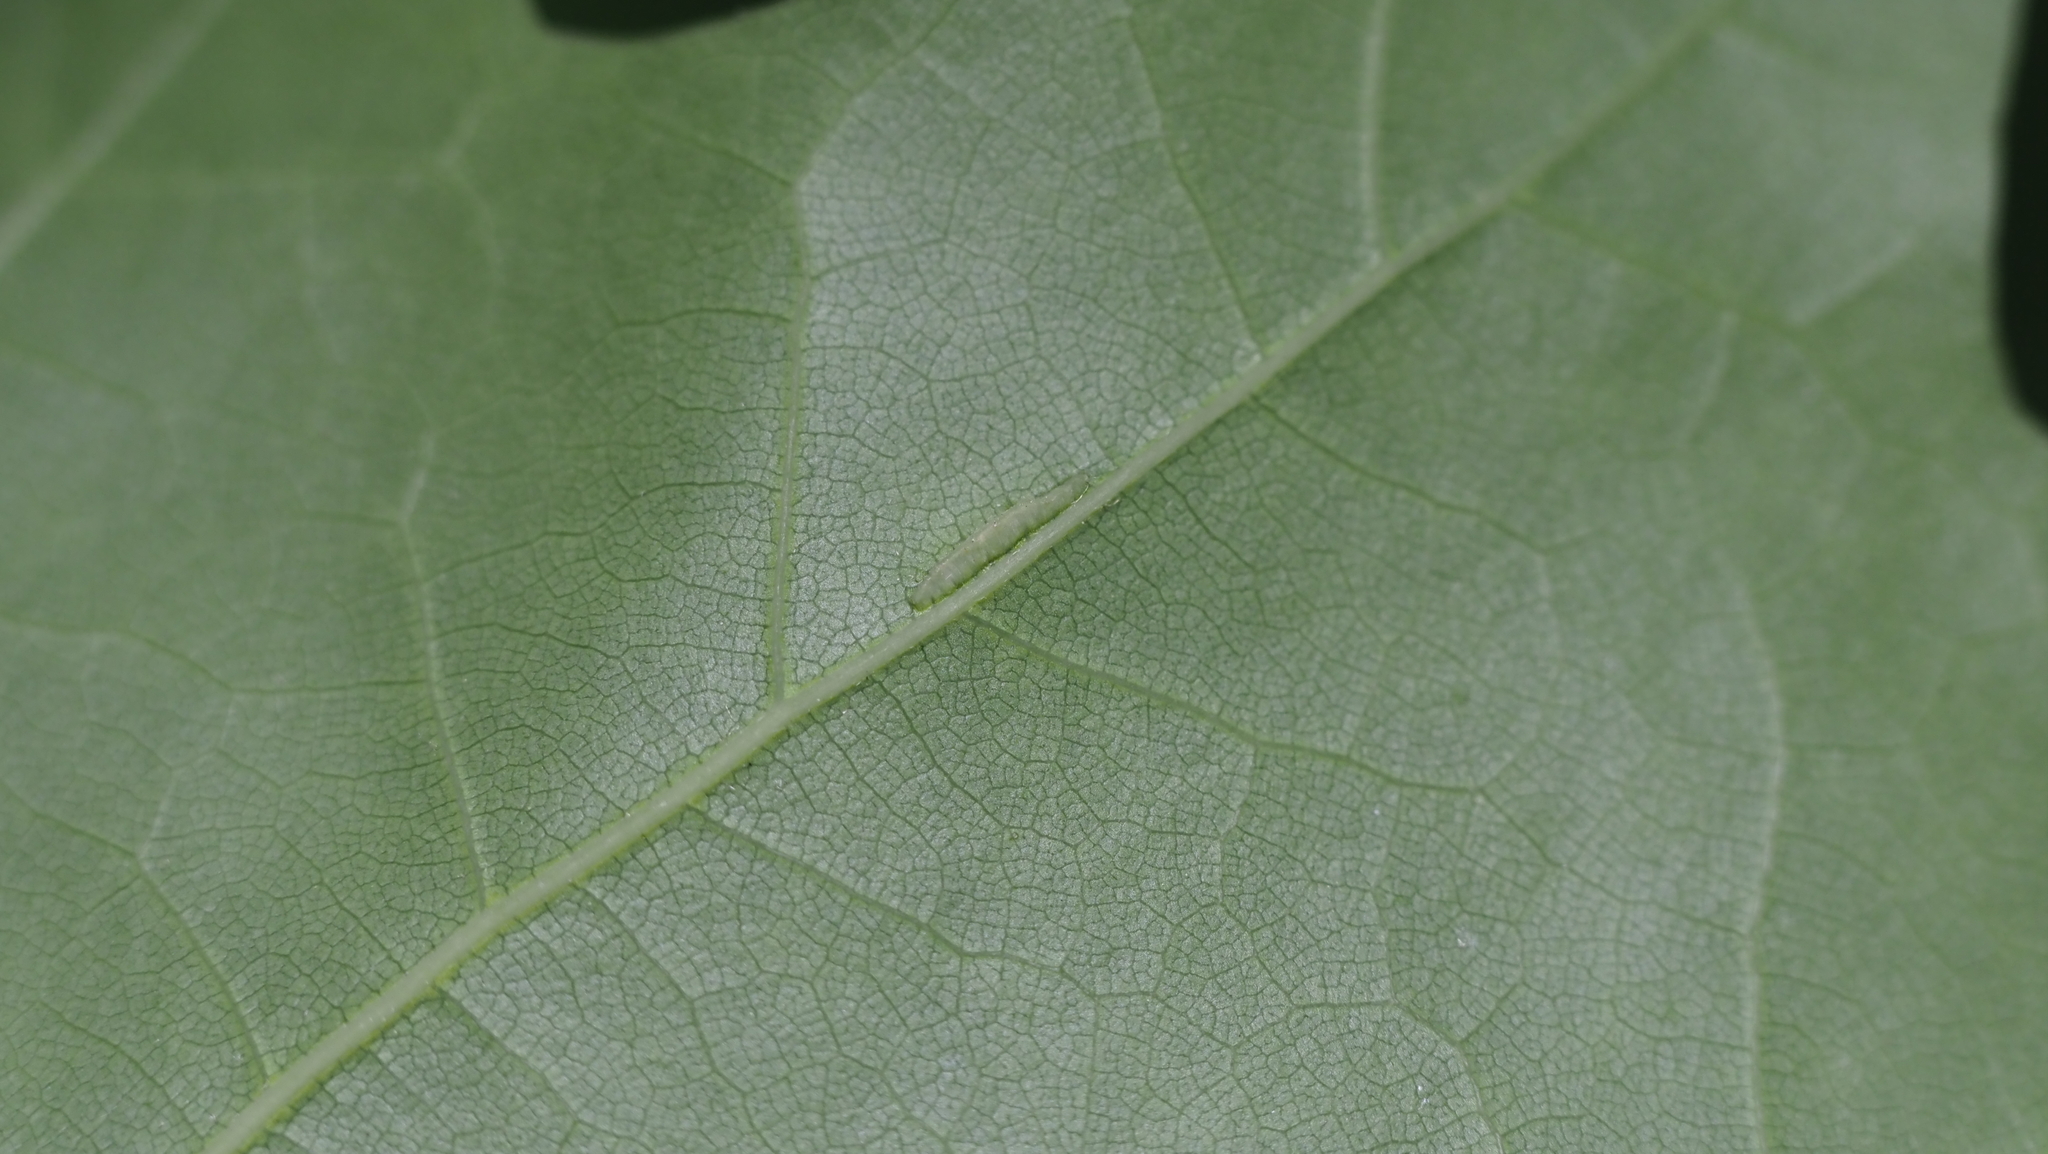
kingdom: Animalia
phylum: Arthropoda
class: Insecta
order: Diptera
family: Cecidomyiidae
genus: Macrodiplosis
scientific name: Macrodiplosis q-orucum
